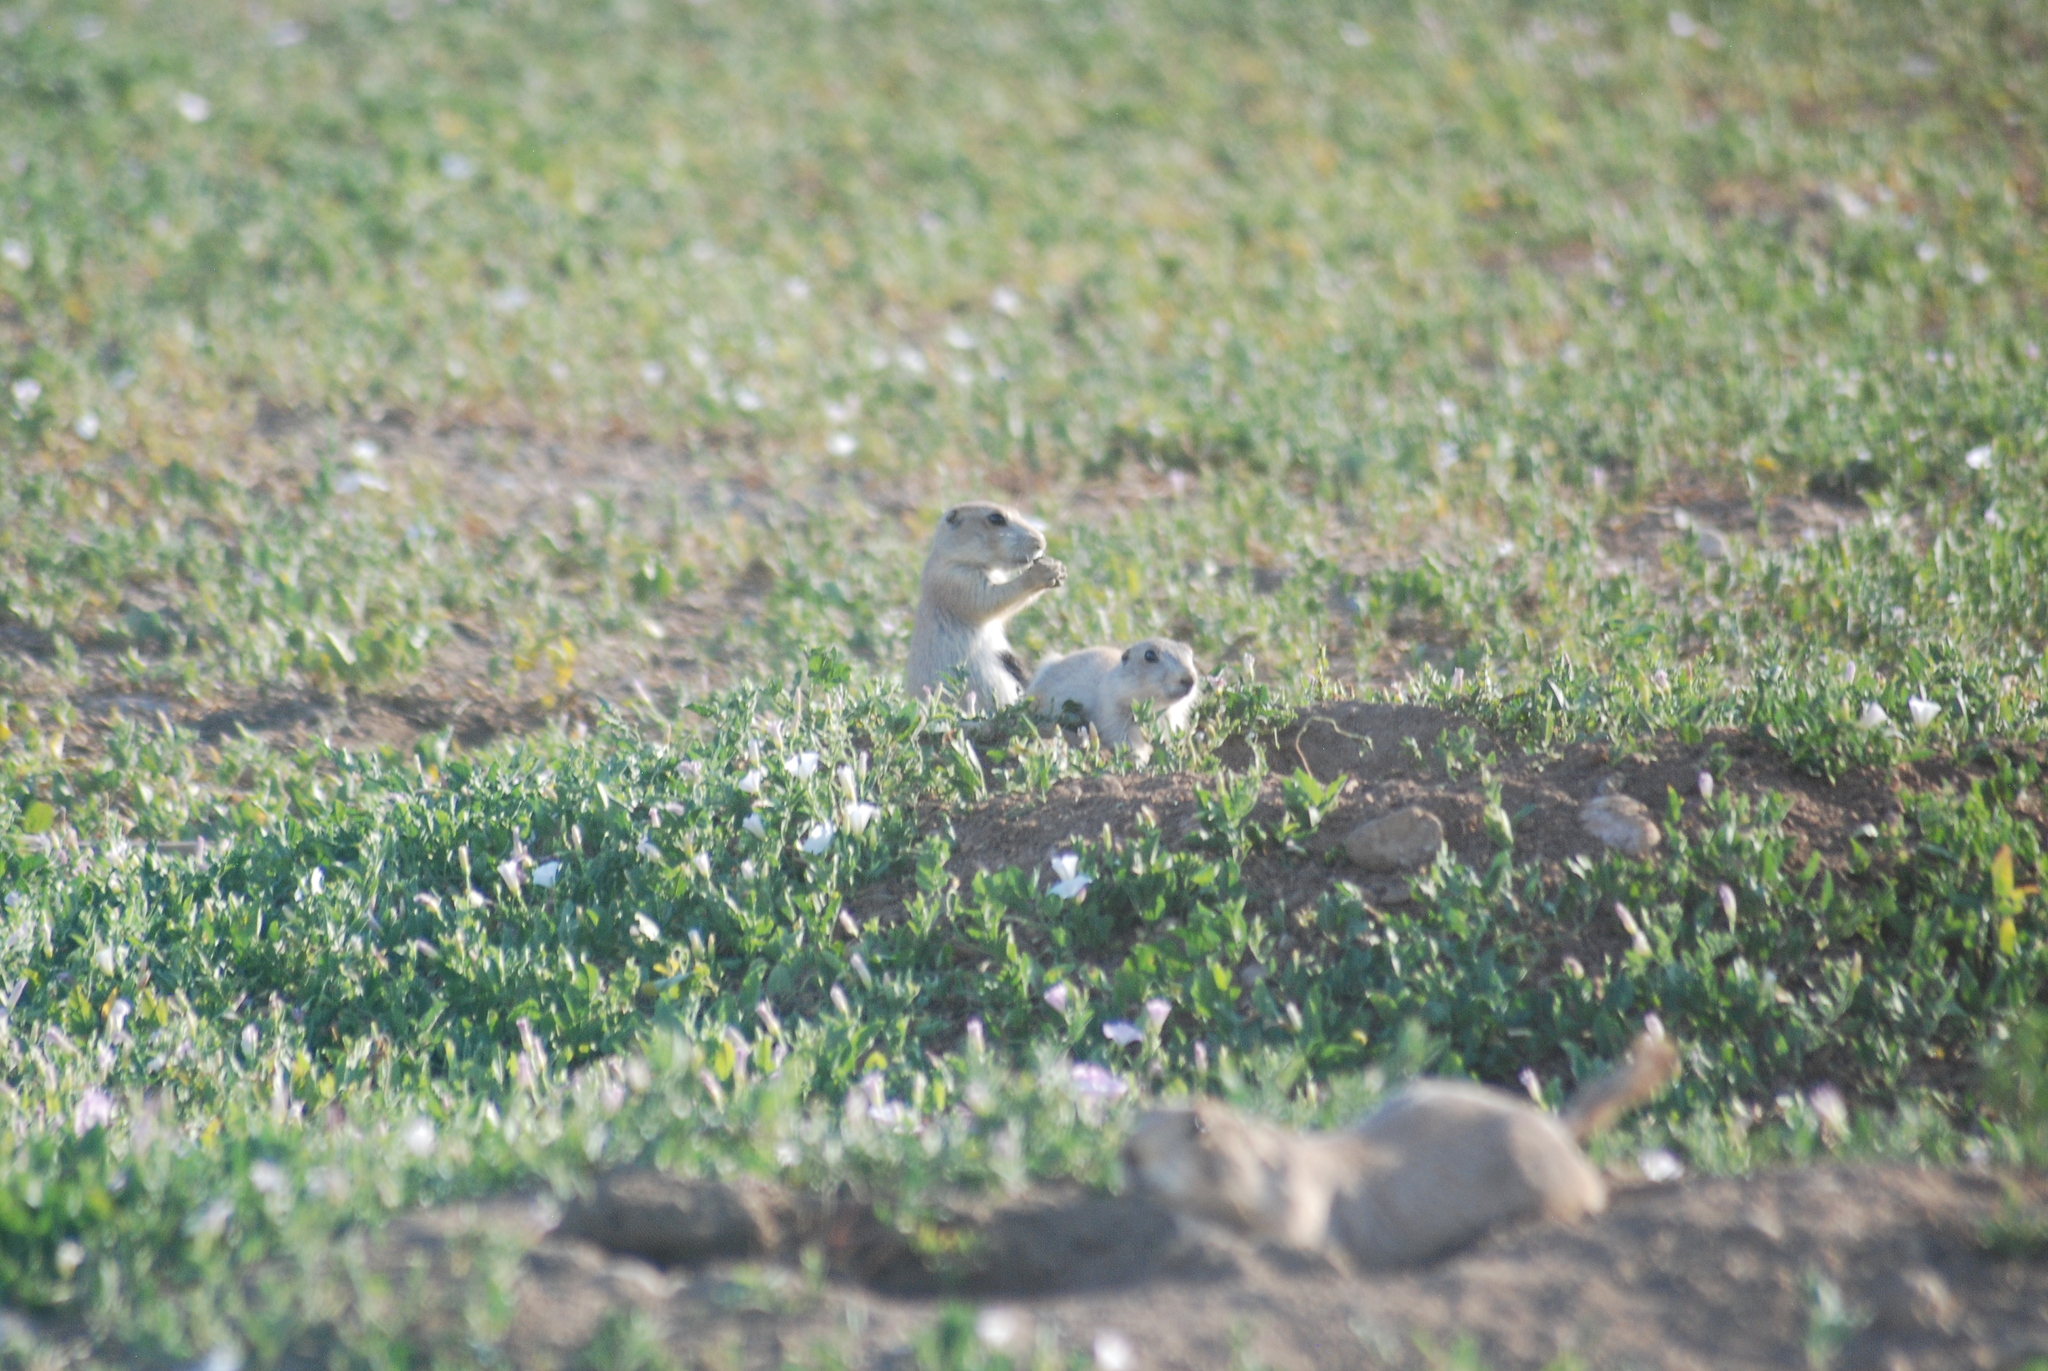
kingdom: Animalia
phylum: Chordata
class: Mammalia
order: Rodentia
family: Sciuridae
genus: Cynomys
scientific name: Cynomys ludovicianus
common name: Black-tailed prairie dog
